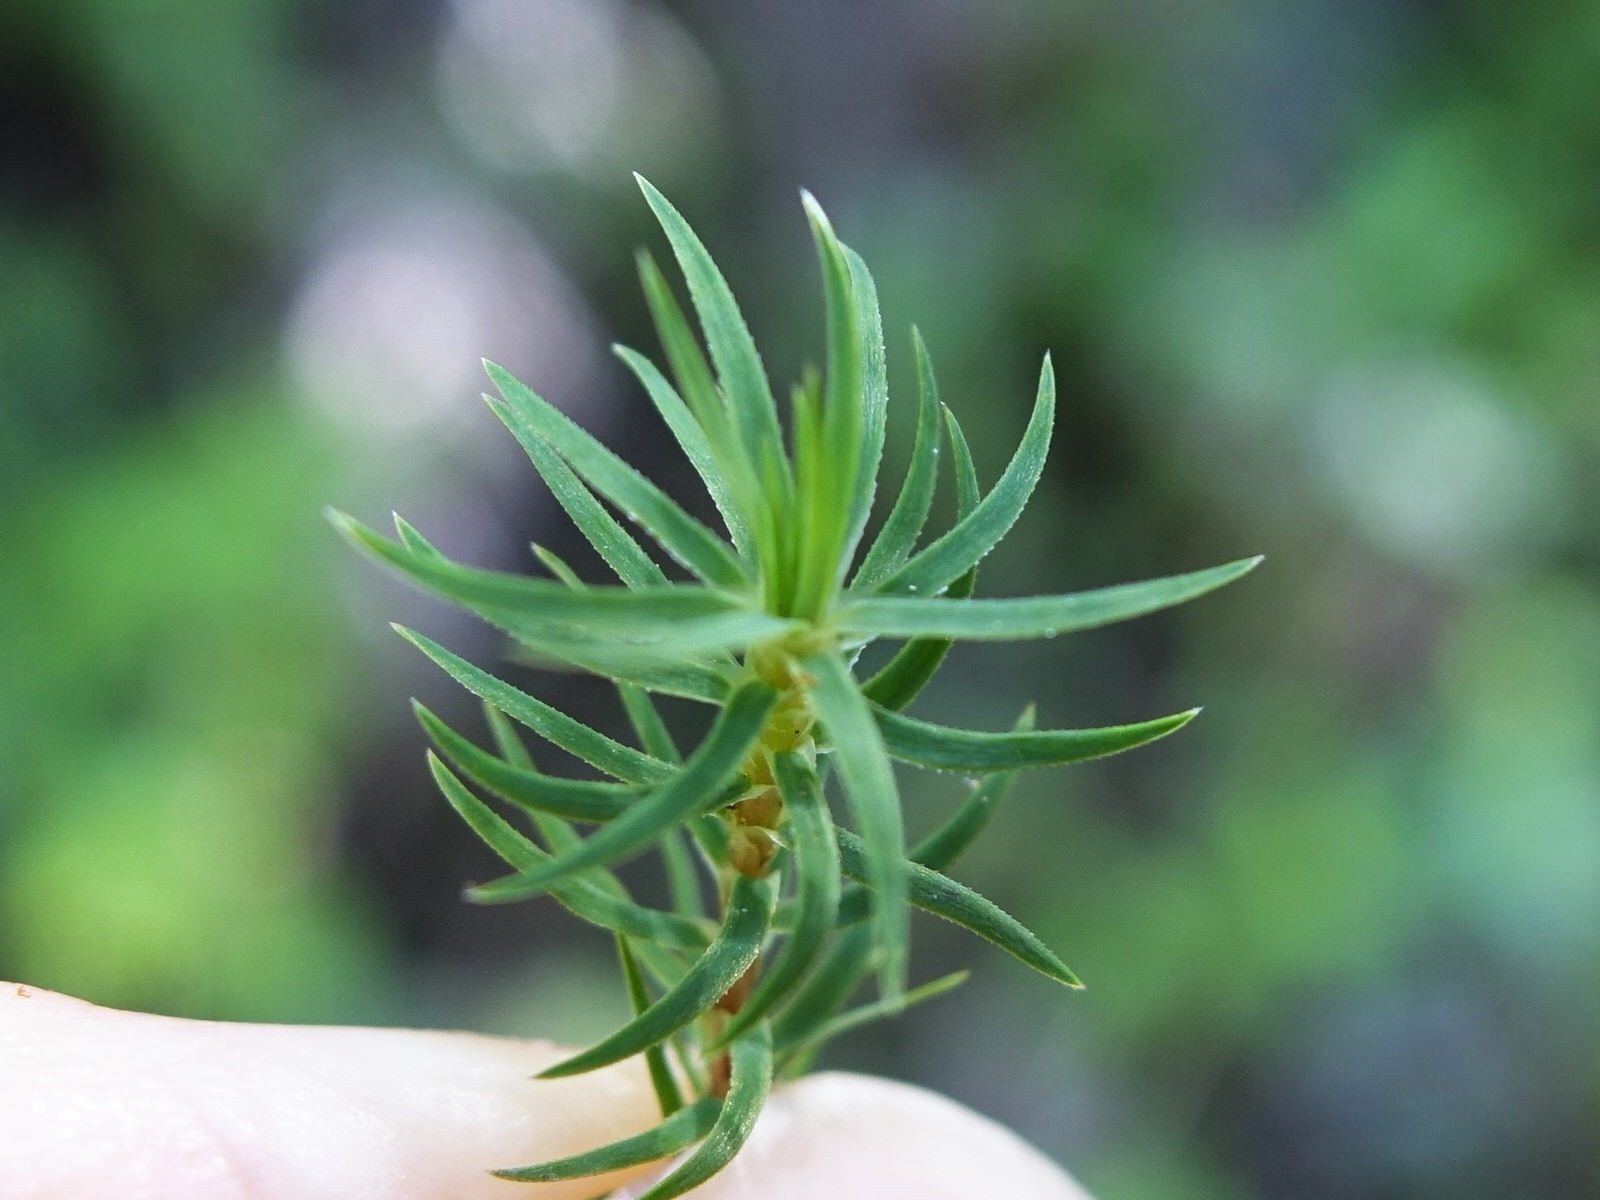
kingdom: Plantae
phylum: Bryophyta
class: Polytrichopsida
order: Polytrichales
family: Polytrichaceae
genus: Polytrichadelphus
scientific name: Polytrichadelphus magellanicus
